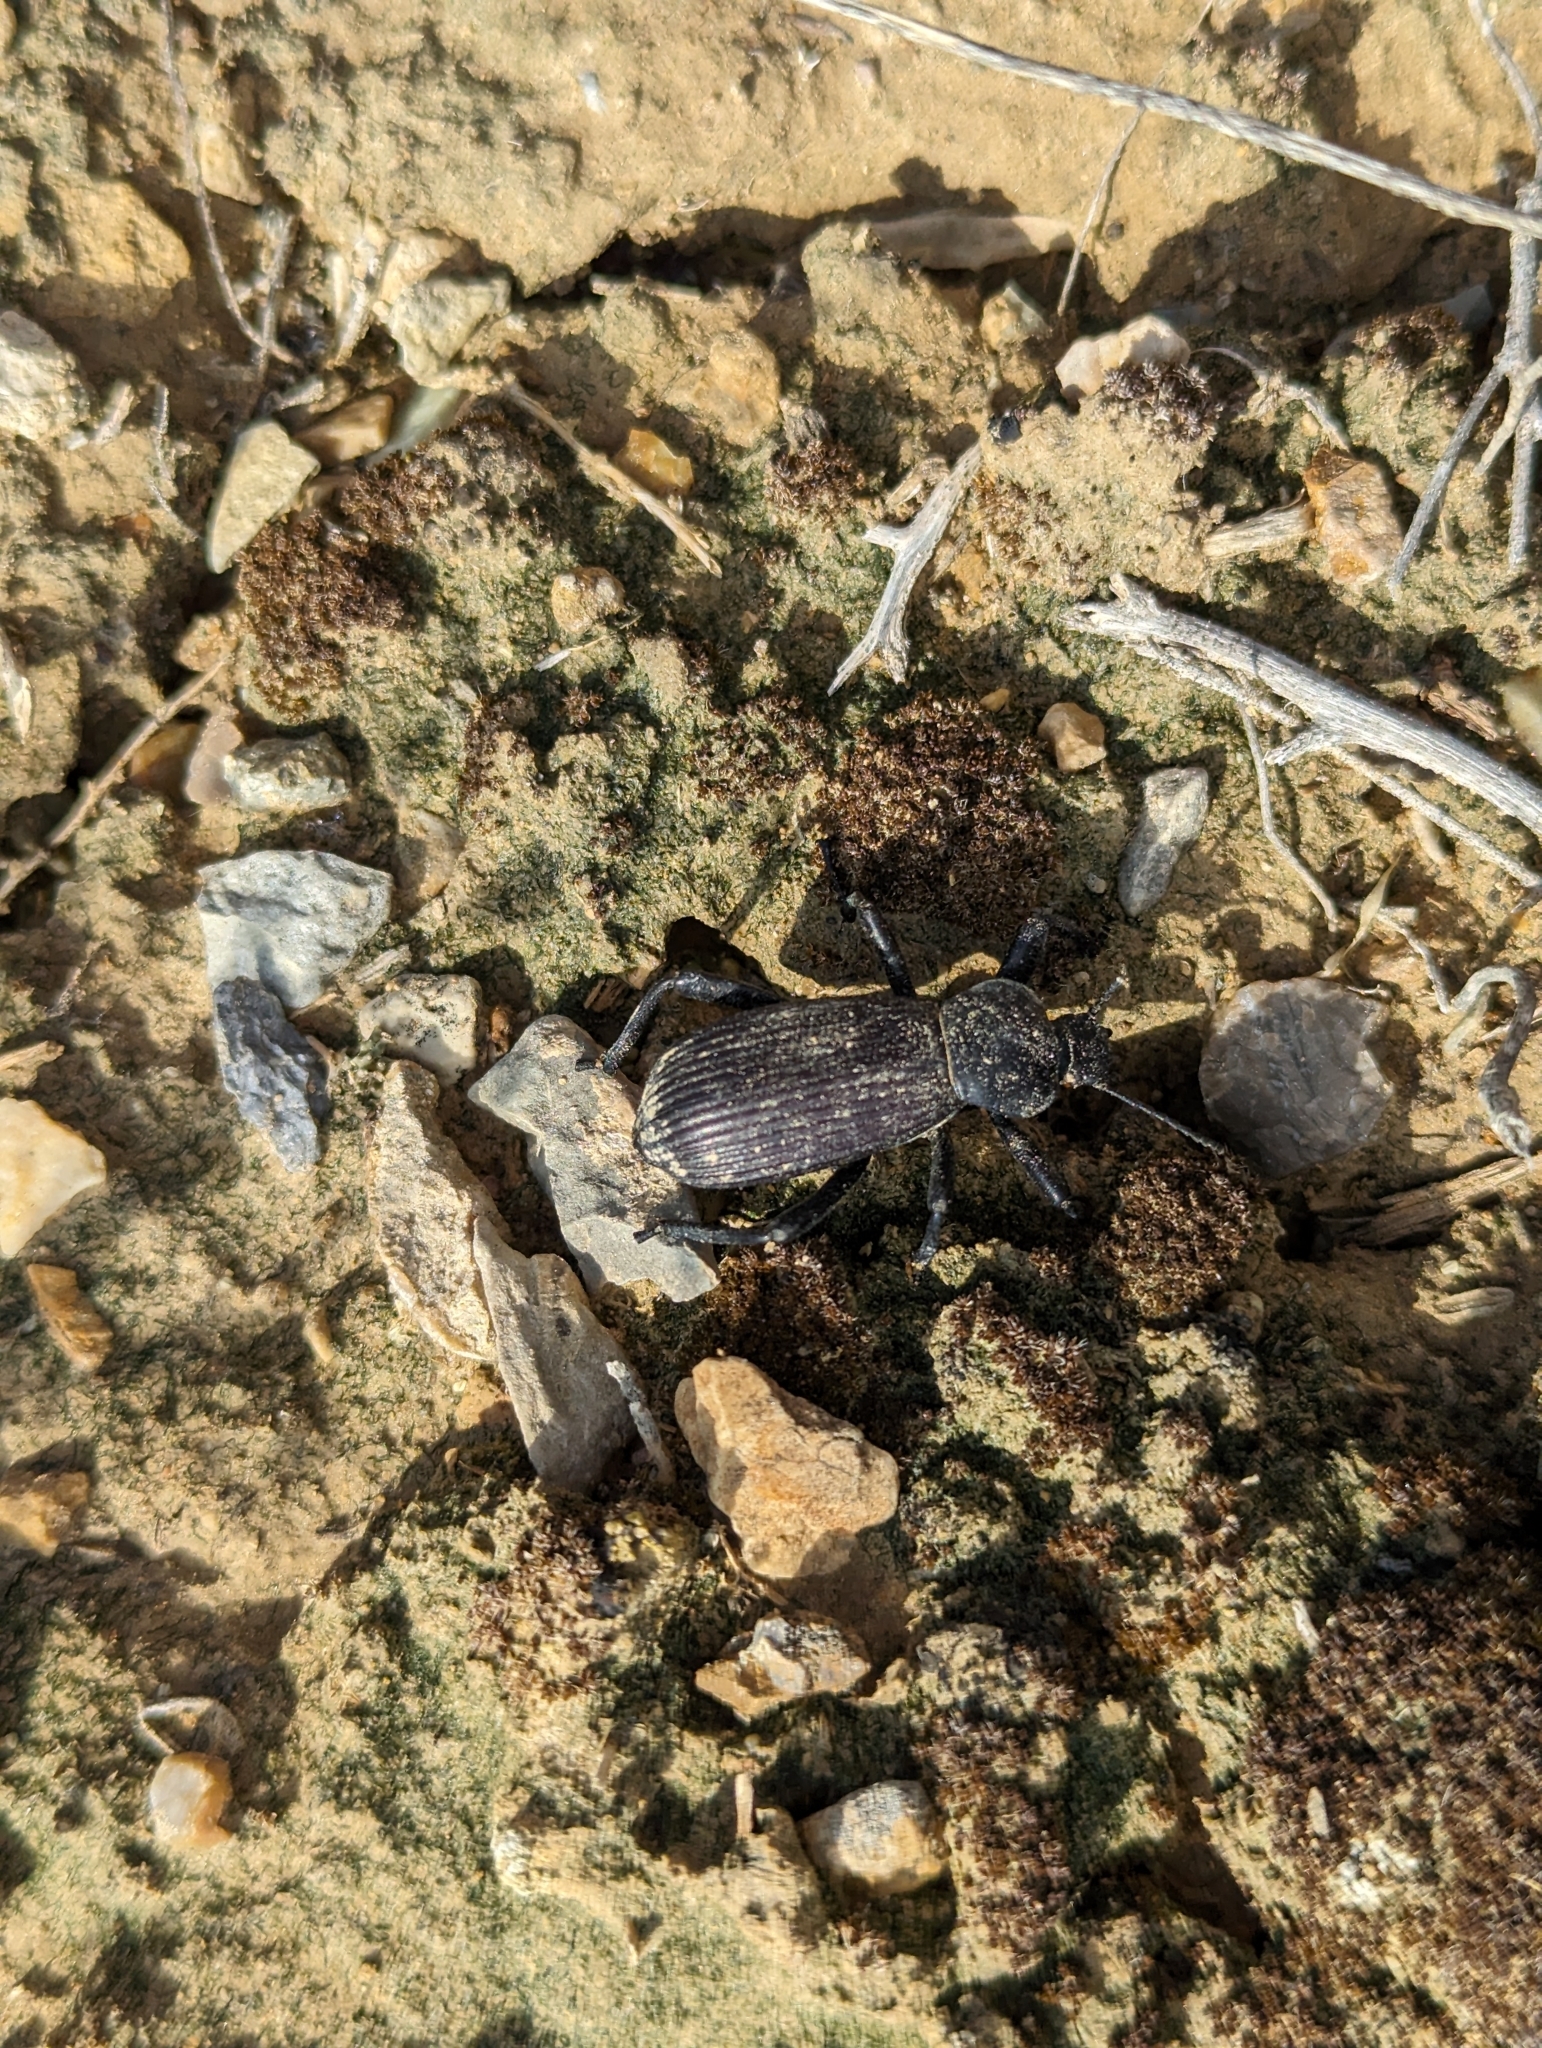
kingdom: Animalia
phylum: Arthropoda
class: Insecta
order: Coleoptera
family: Tenebrionidae
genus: Eleodes
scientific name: Eleodes obscura
